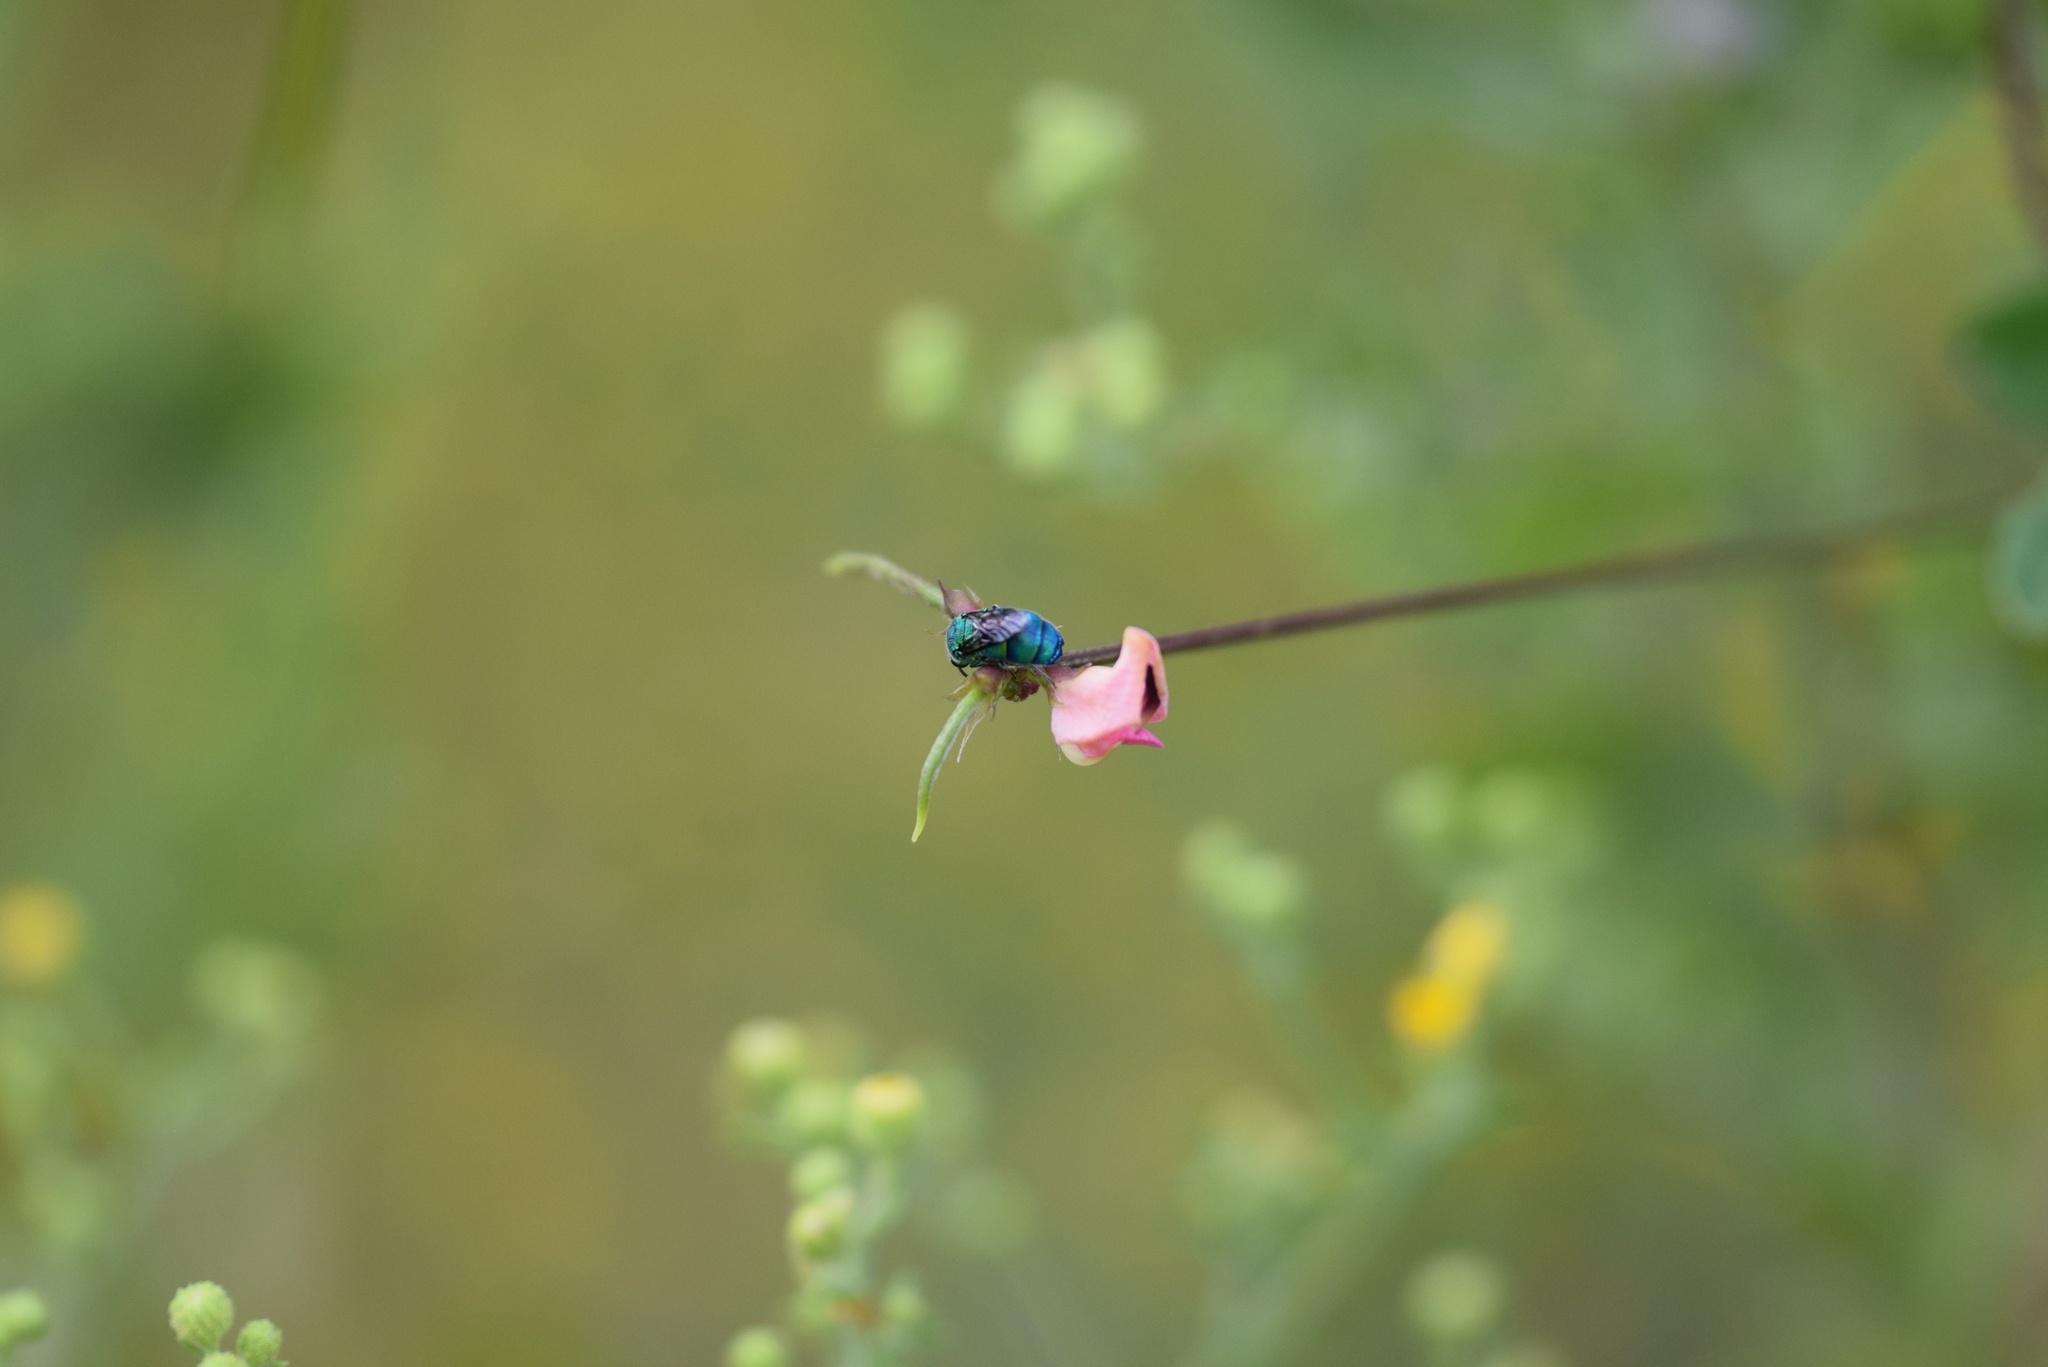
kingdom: Animalia
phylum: Arthropoda
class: Insecta
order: Hymenoptera
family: Chrysididae
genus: Chrysis
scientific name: Chrysis conica
